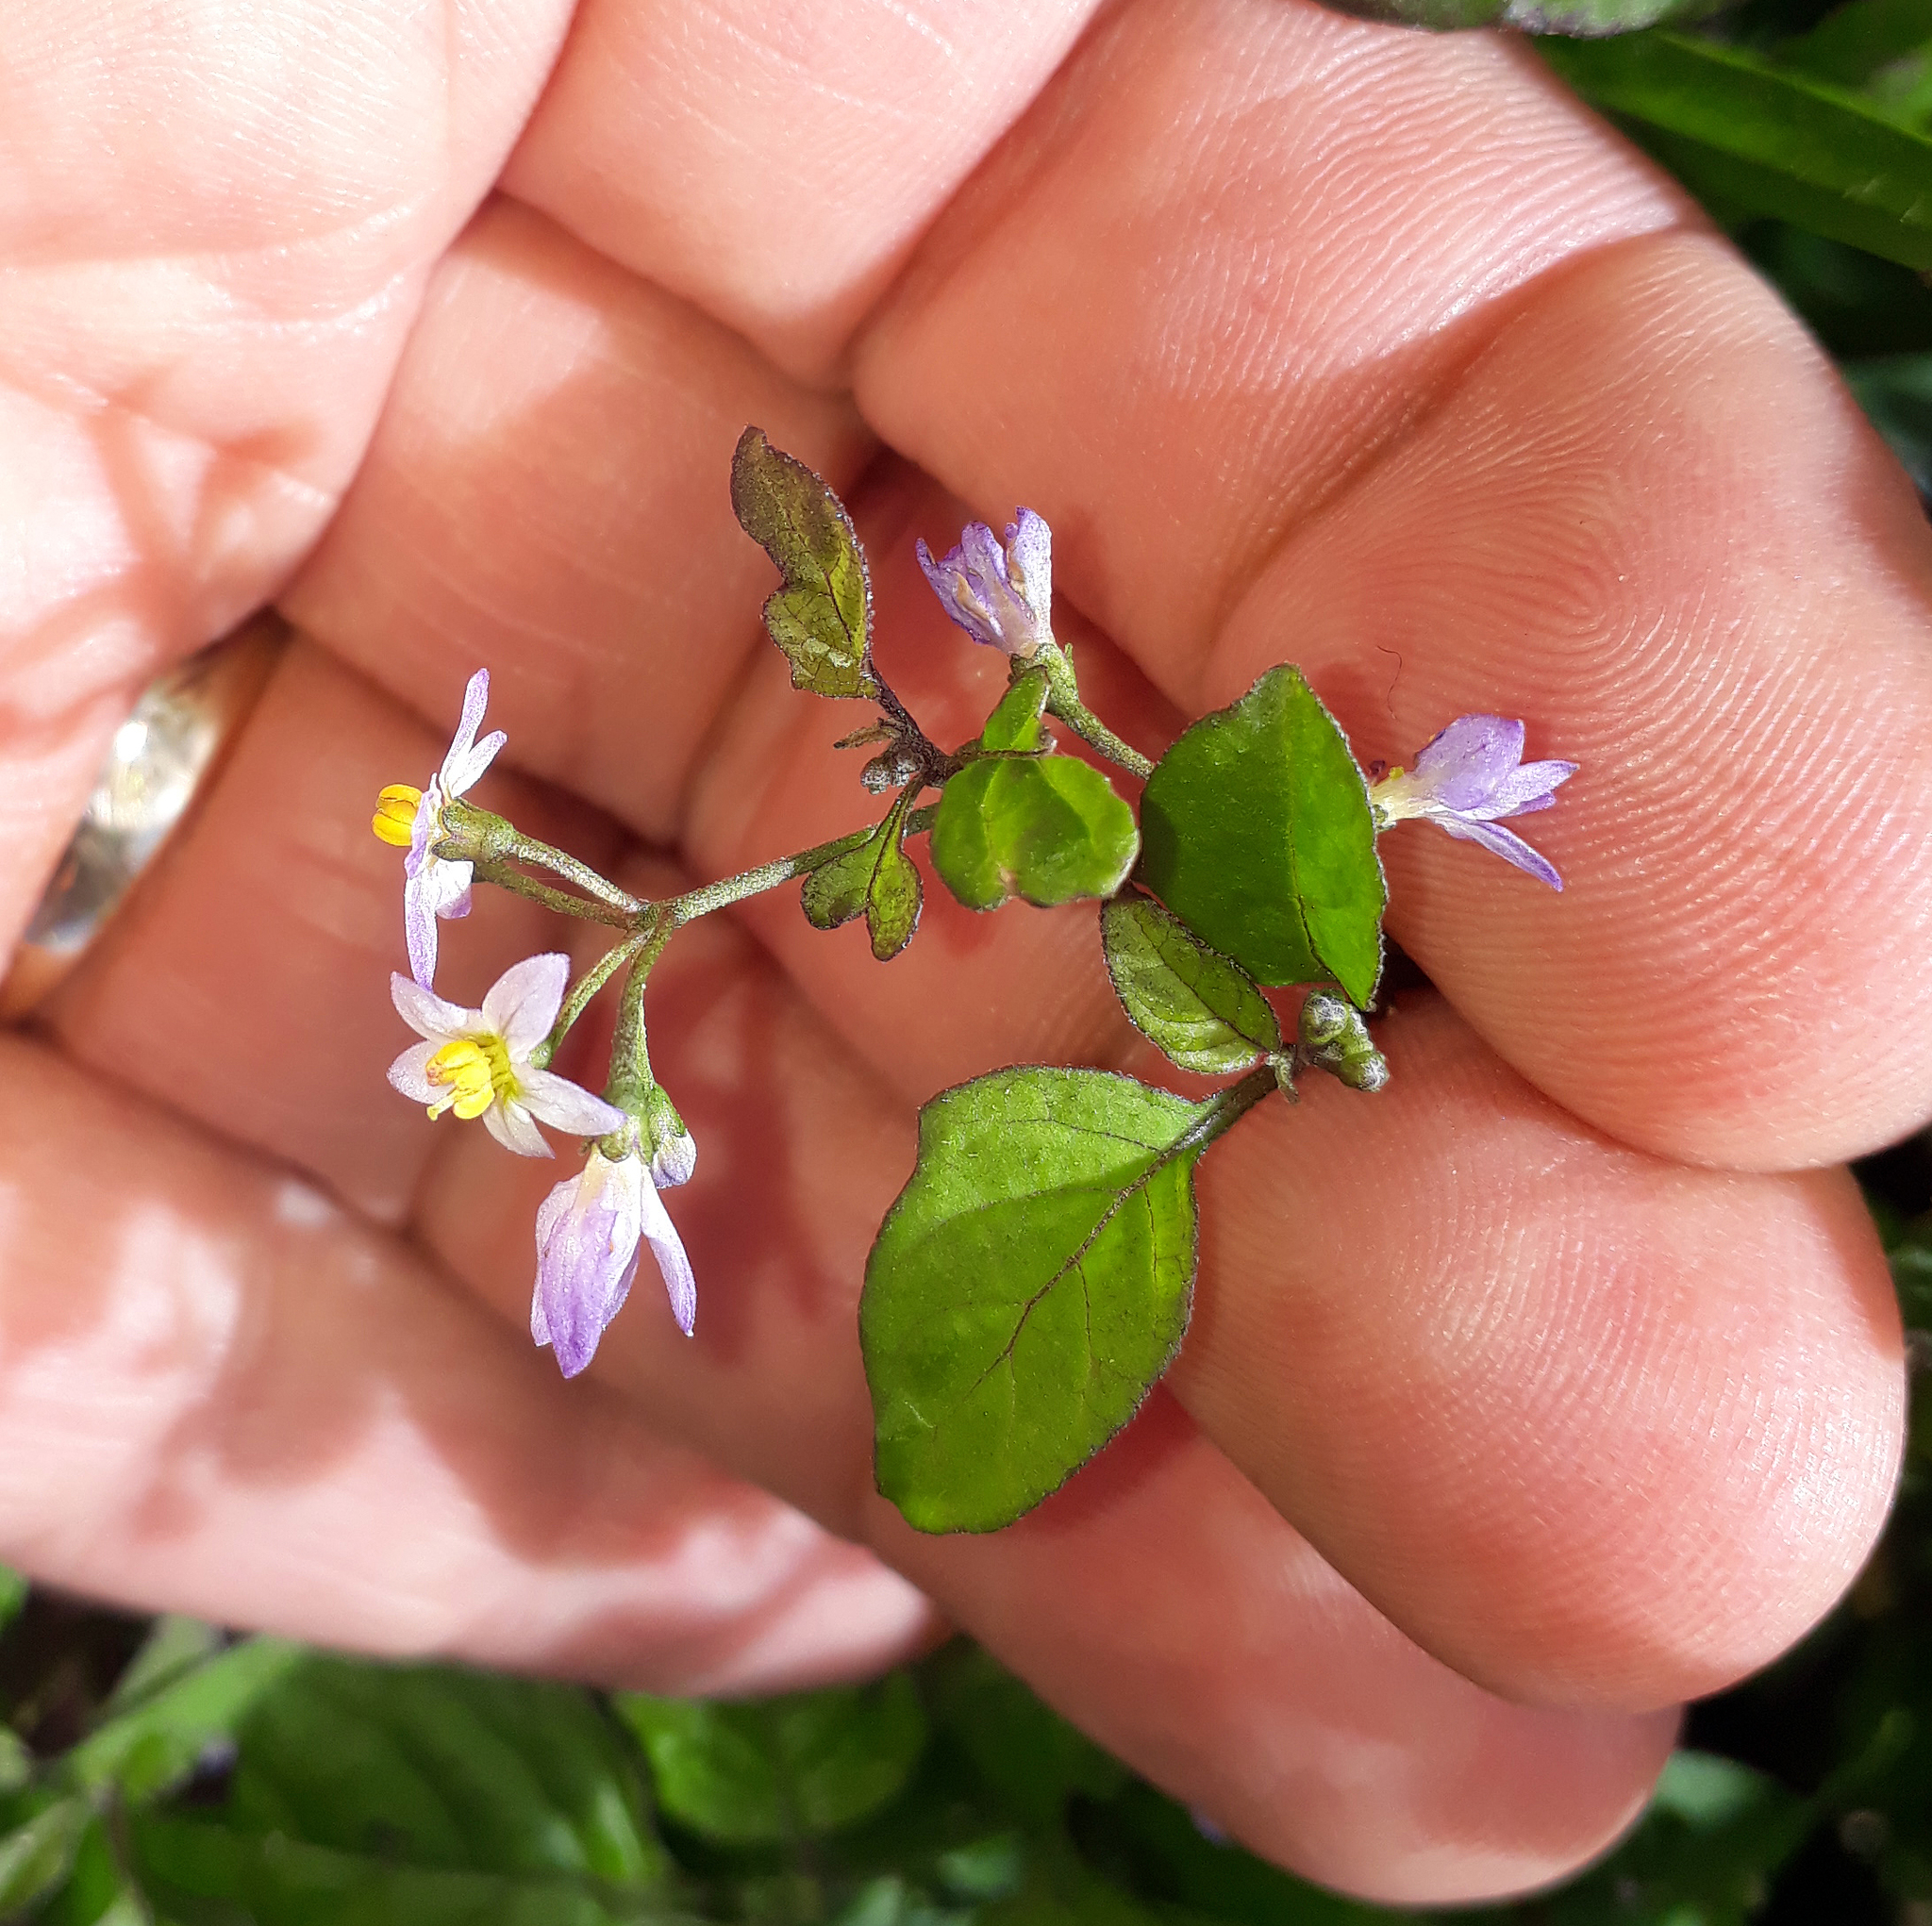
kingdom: Plantae
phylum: Tracheophyta
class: Magnoliopsida
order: Solanales
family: Solanaceae
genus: Solanum
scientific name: Solanum opacum
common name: Green-berry nightshade
